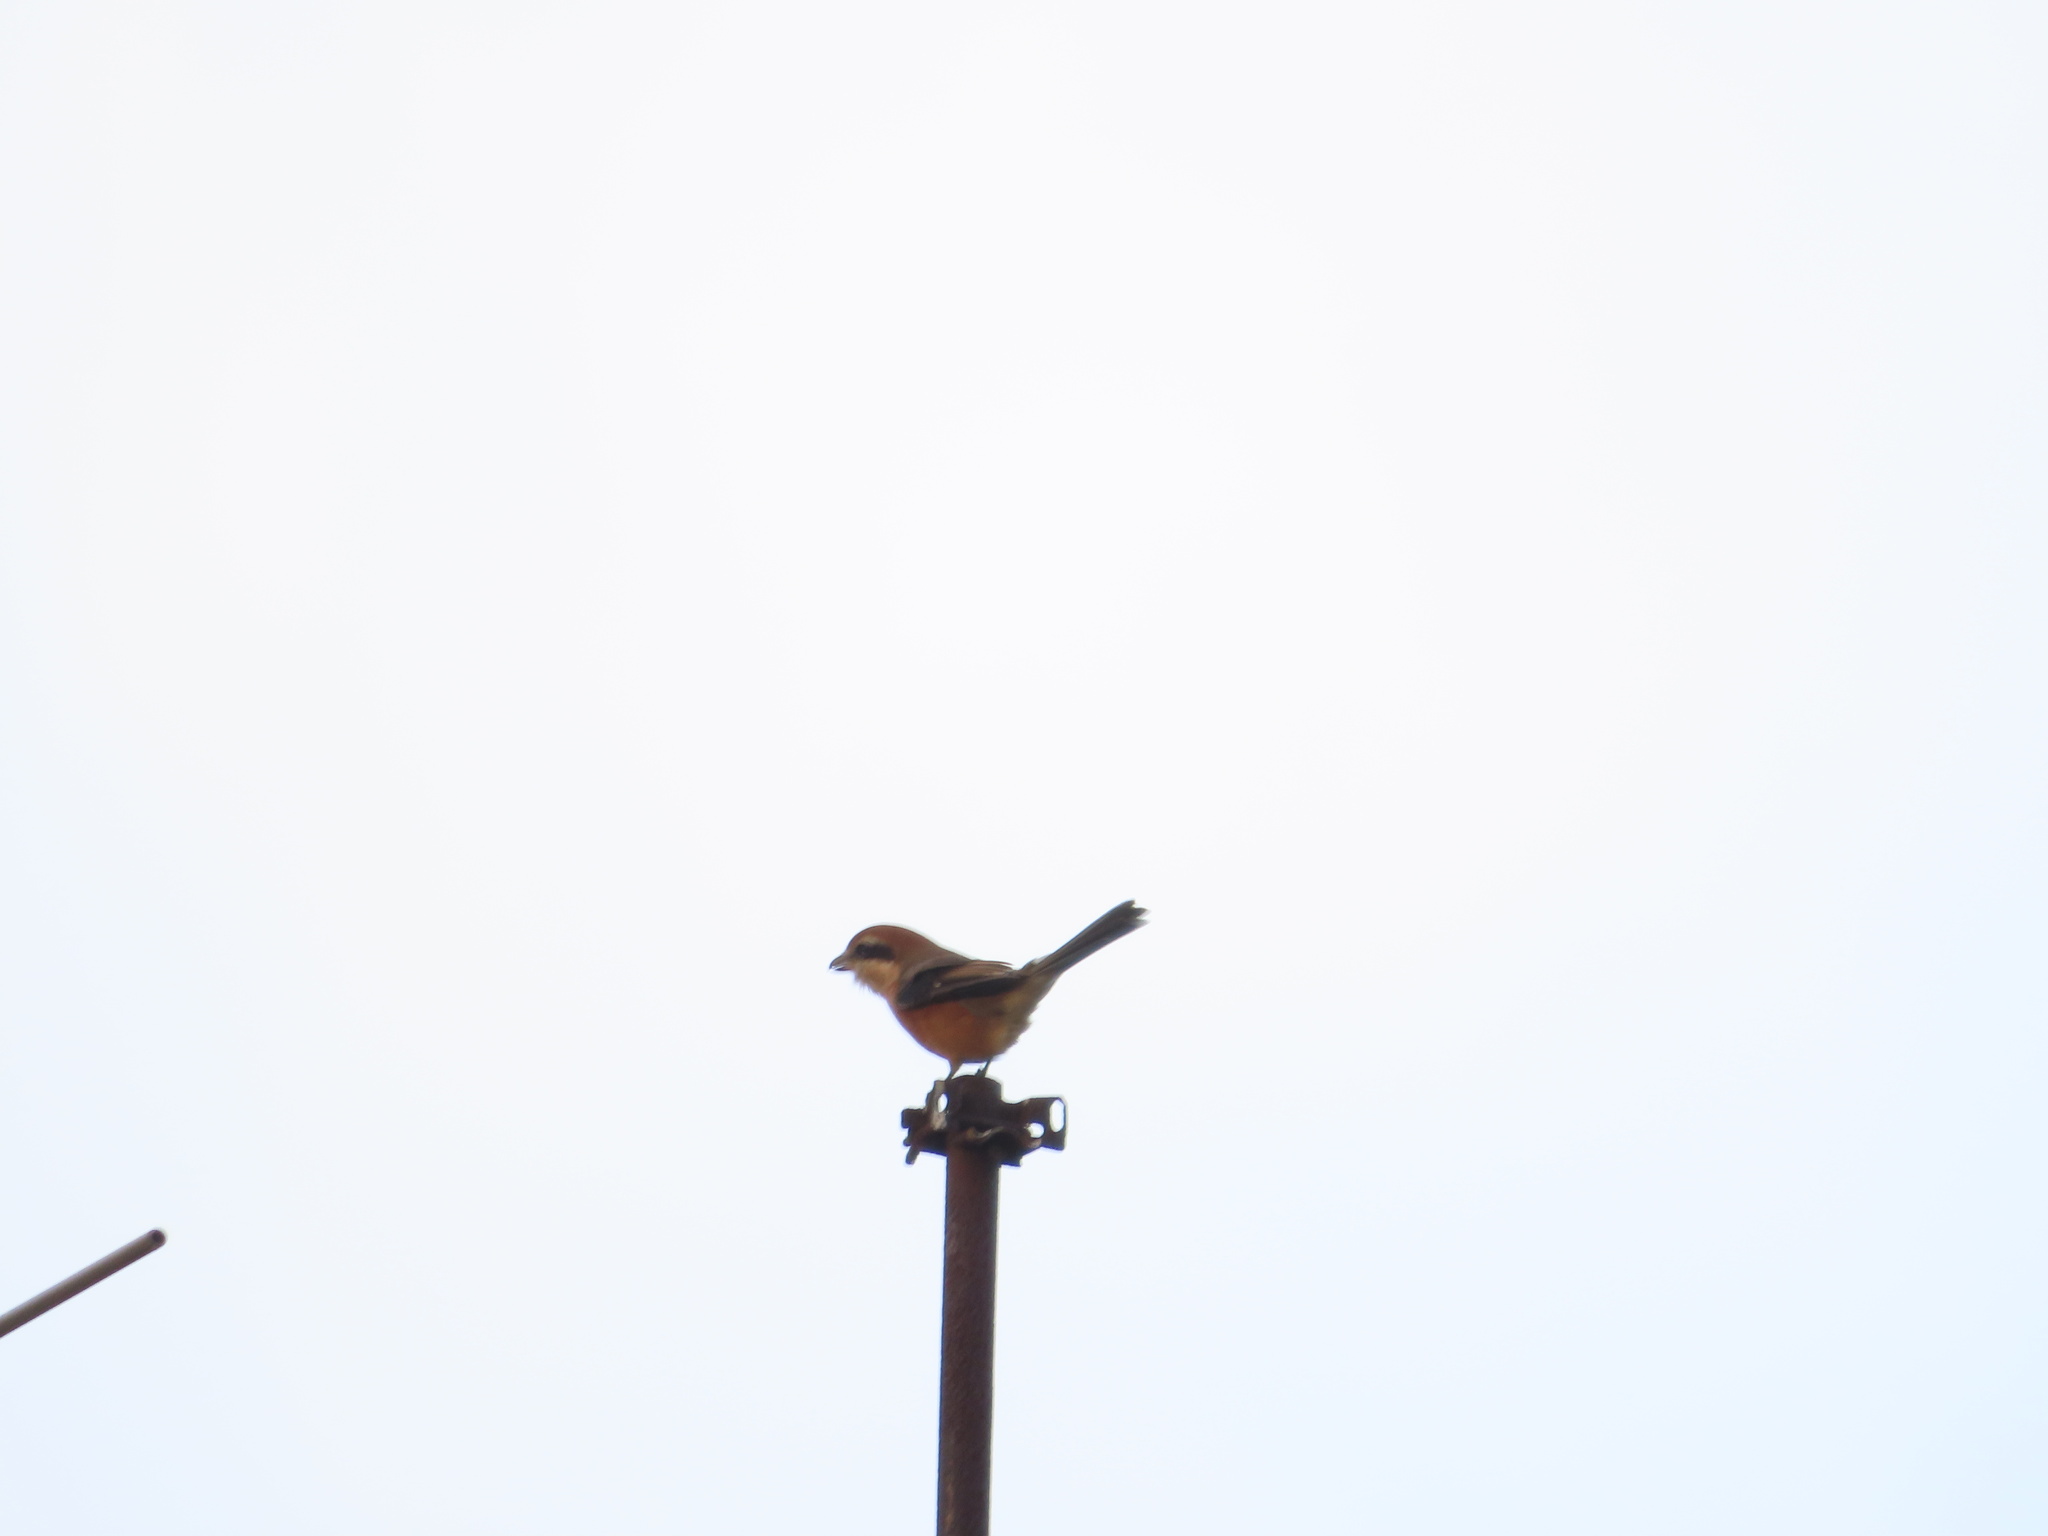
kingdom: Animalia
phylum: Chordata
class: Aves
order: Passeriformes
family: Laniidae
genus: Lanius
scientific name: Lanius bucephalus
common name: Bull-headed shrike
